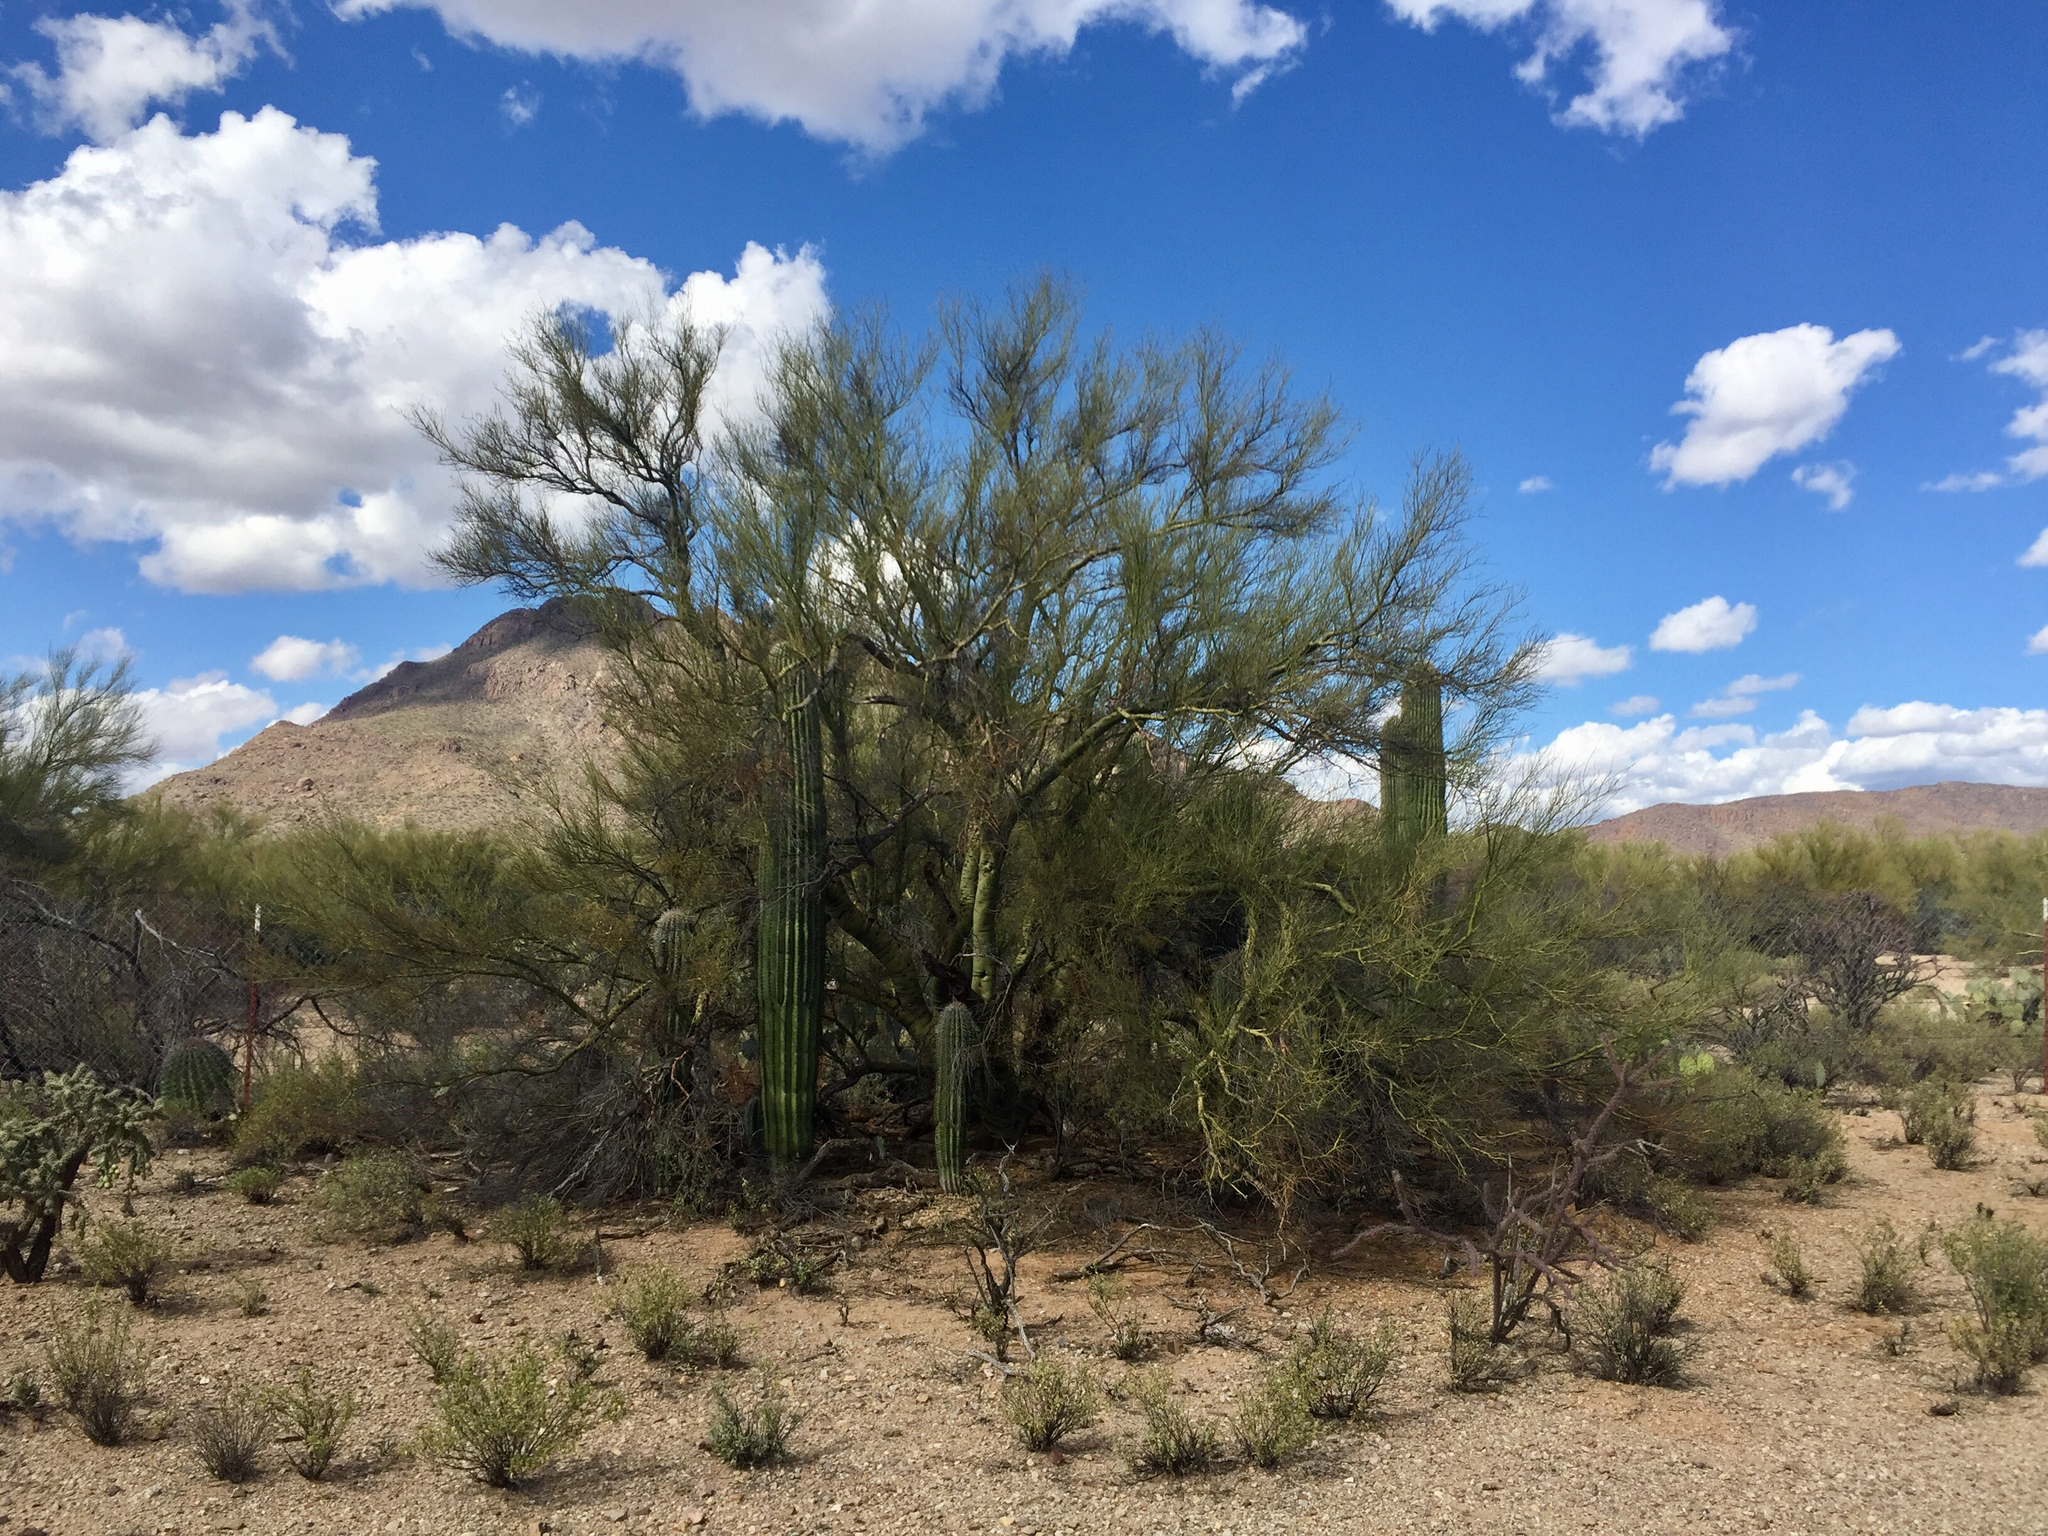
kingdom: Plantae
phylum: Tracheophyta
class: Magnoliopsida
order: Fabales
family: Fabaceae
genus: Parkinsonia
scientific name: Parkinsonia microphylla
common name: Yellow paloverde
